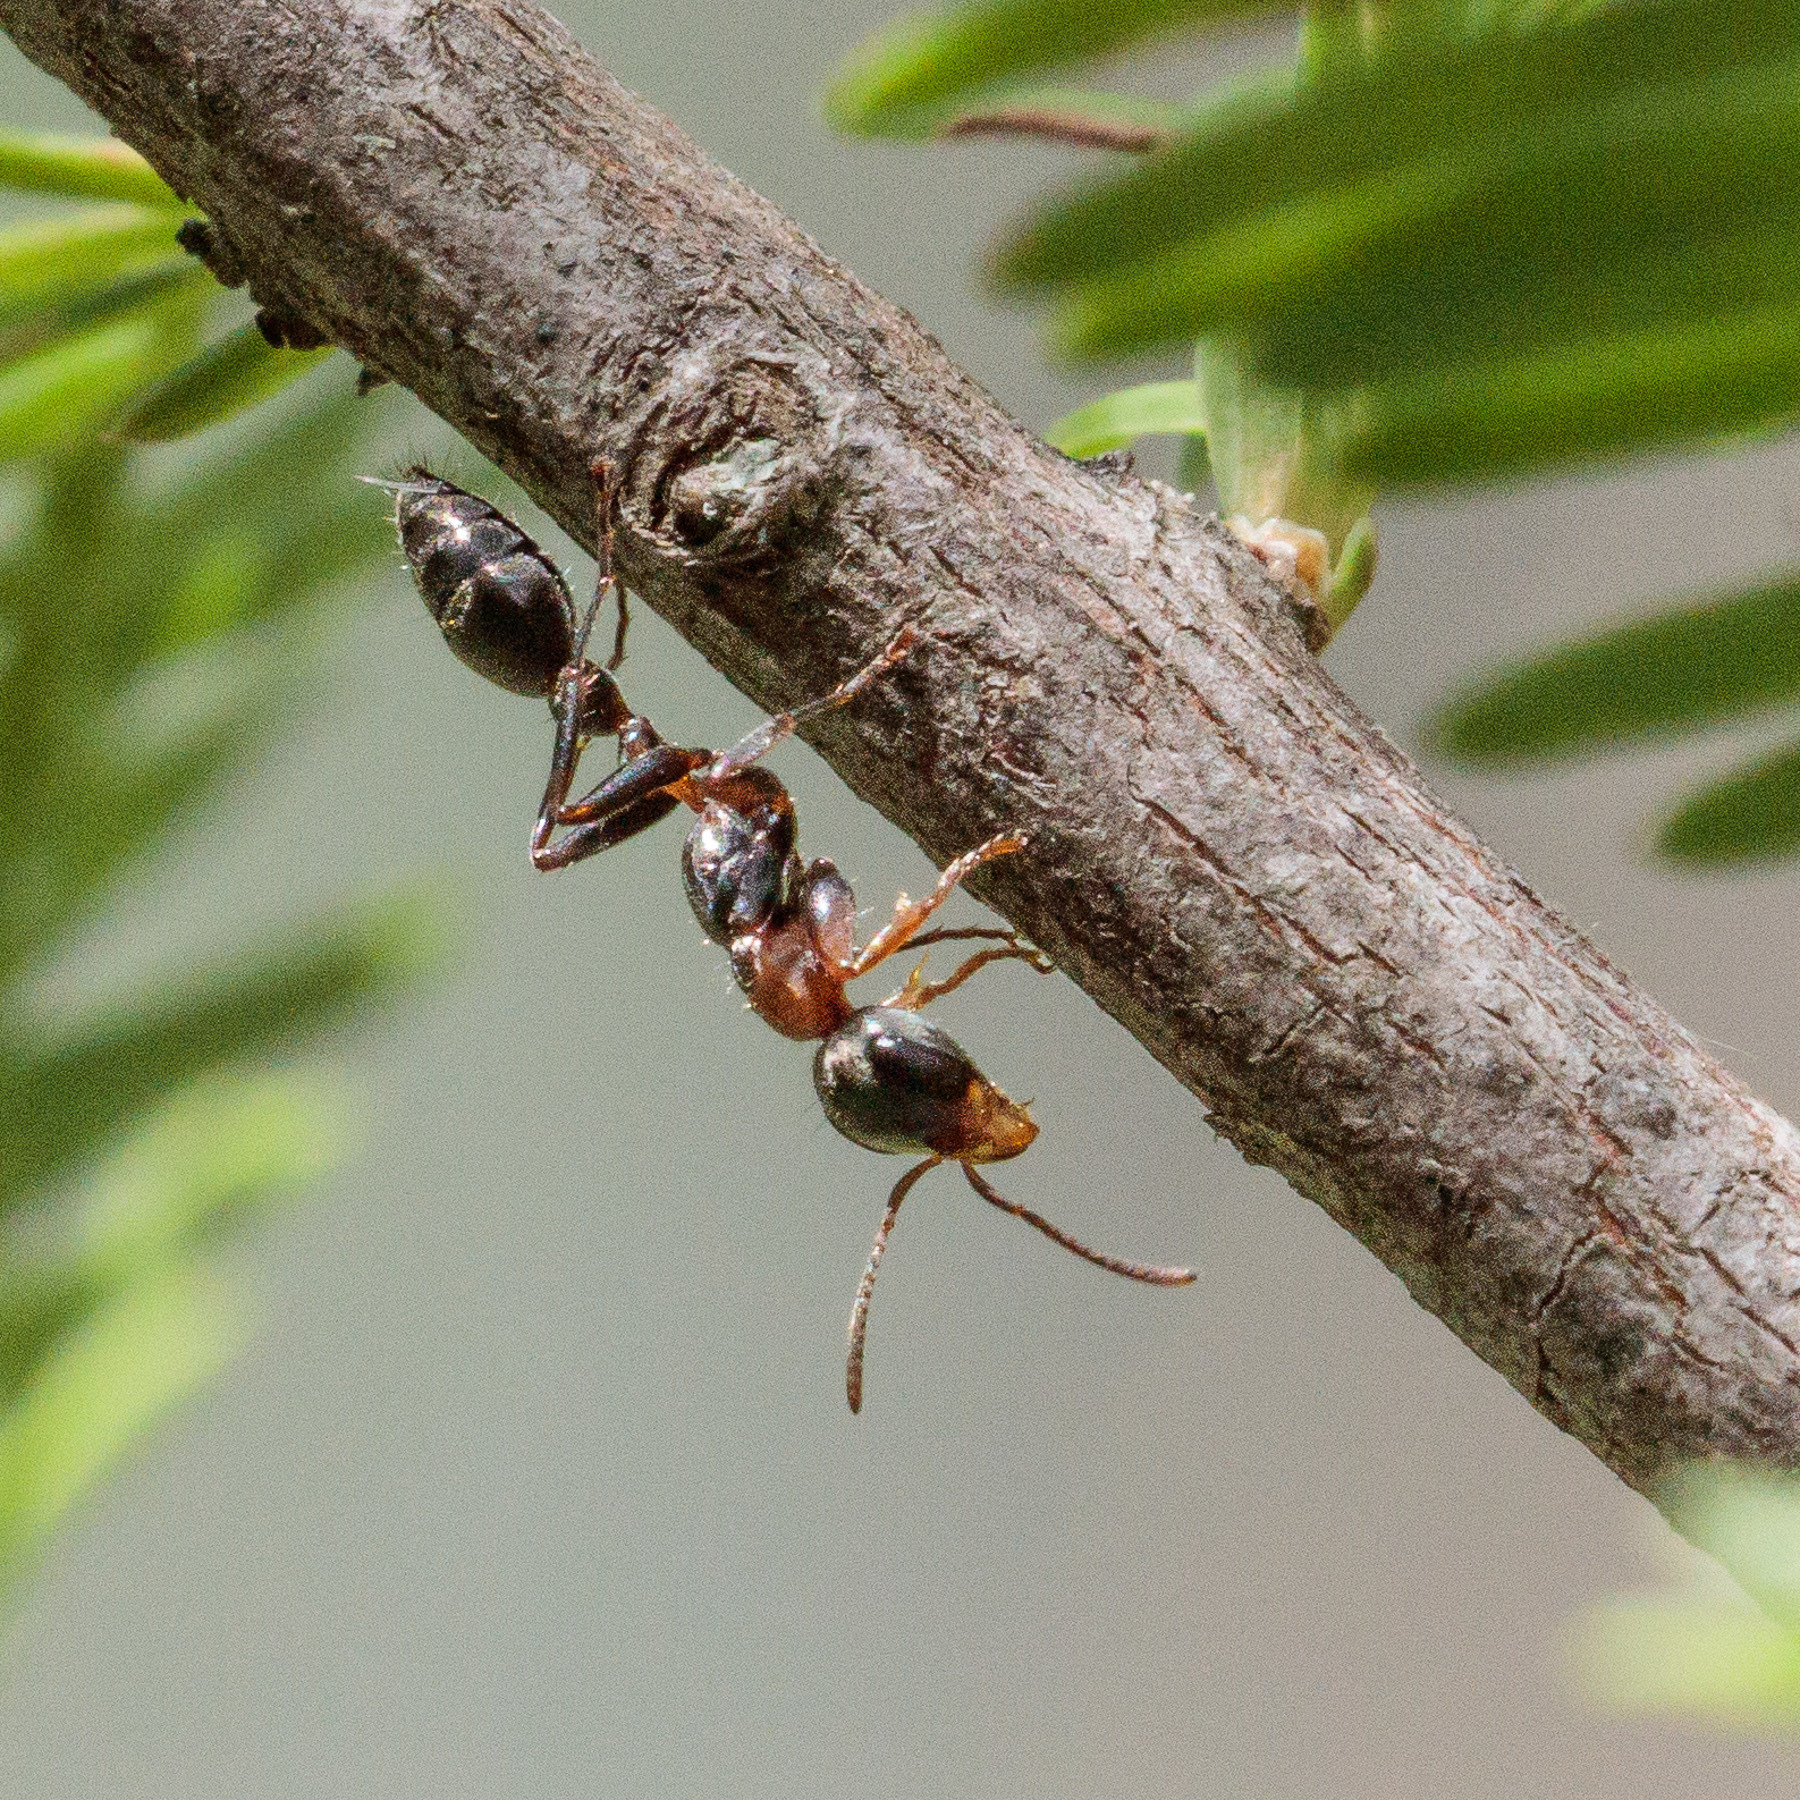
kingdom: Animalia
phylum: Arthropoda
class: Insecta
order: Hymenoptera
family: Formicidae
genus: Pseudomyrmex
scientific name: Pseudomyrmex gracilis
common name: Graceful twig ant
